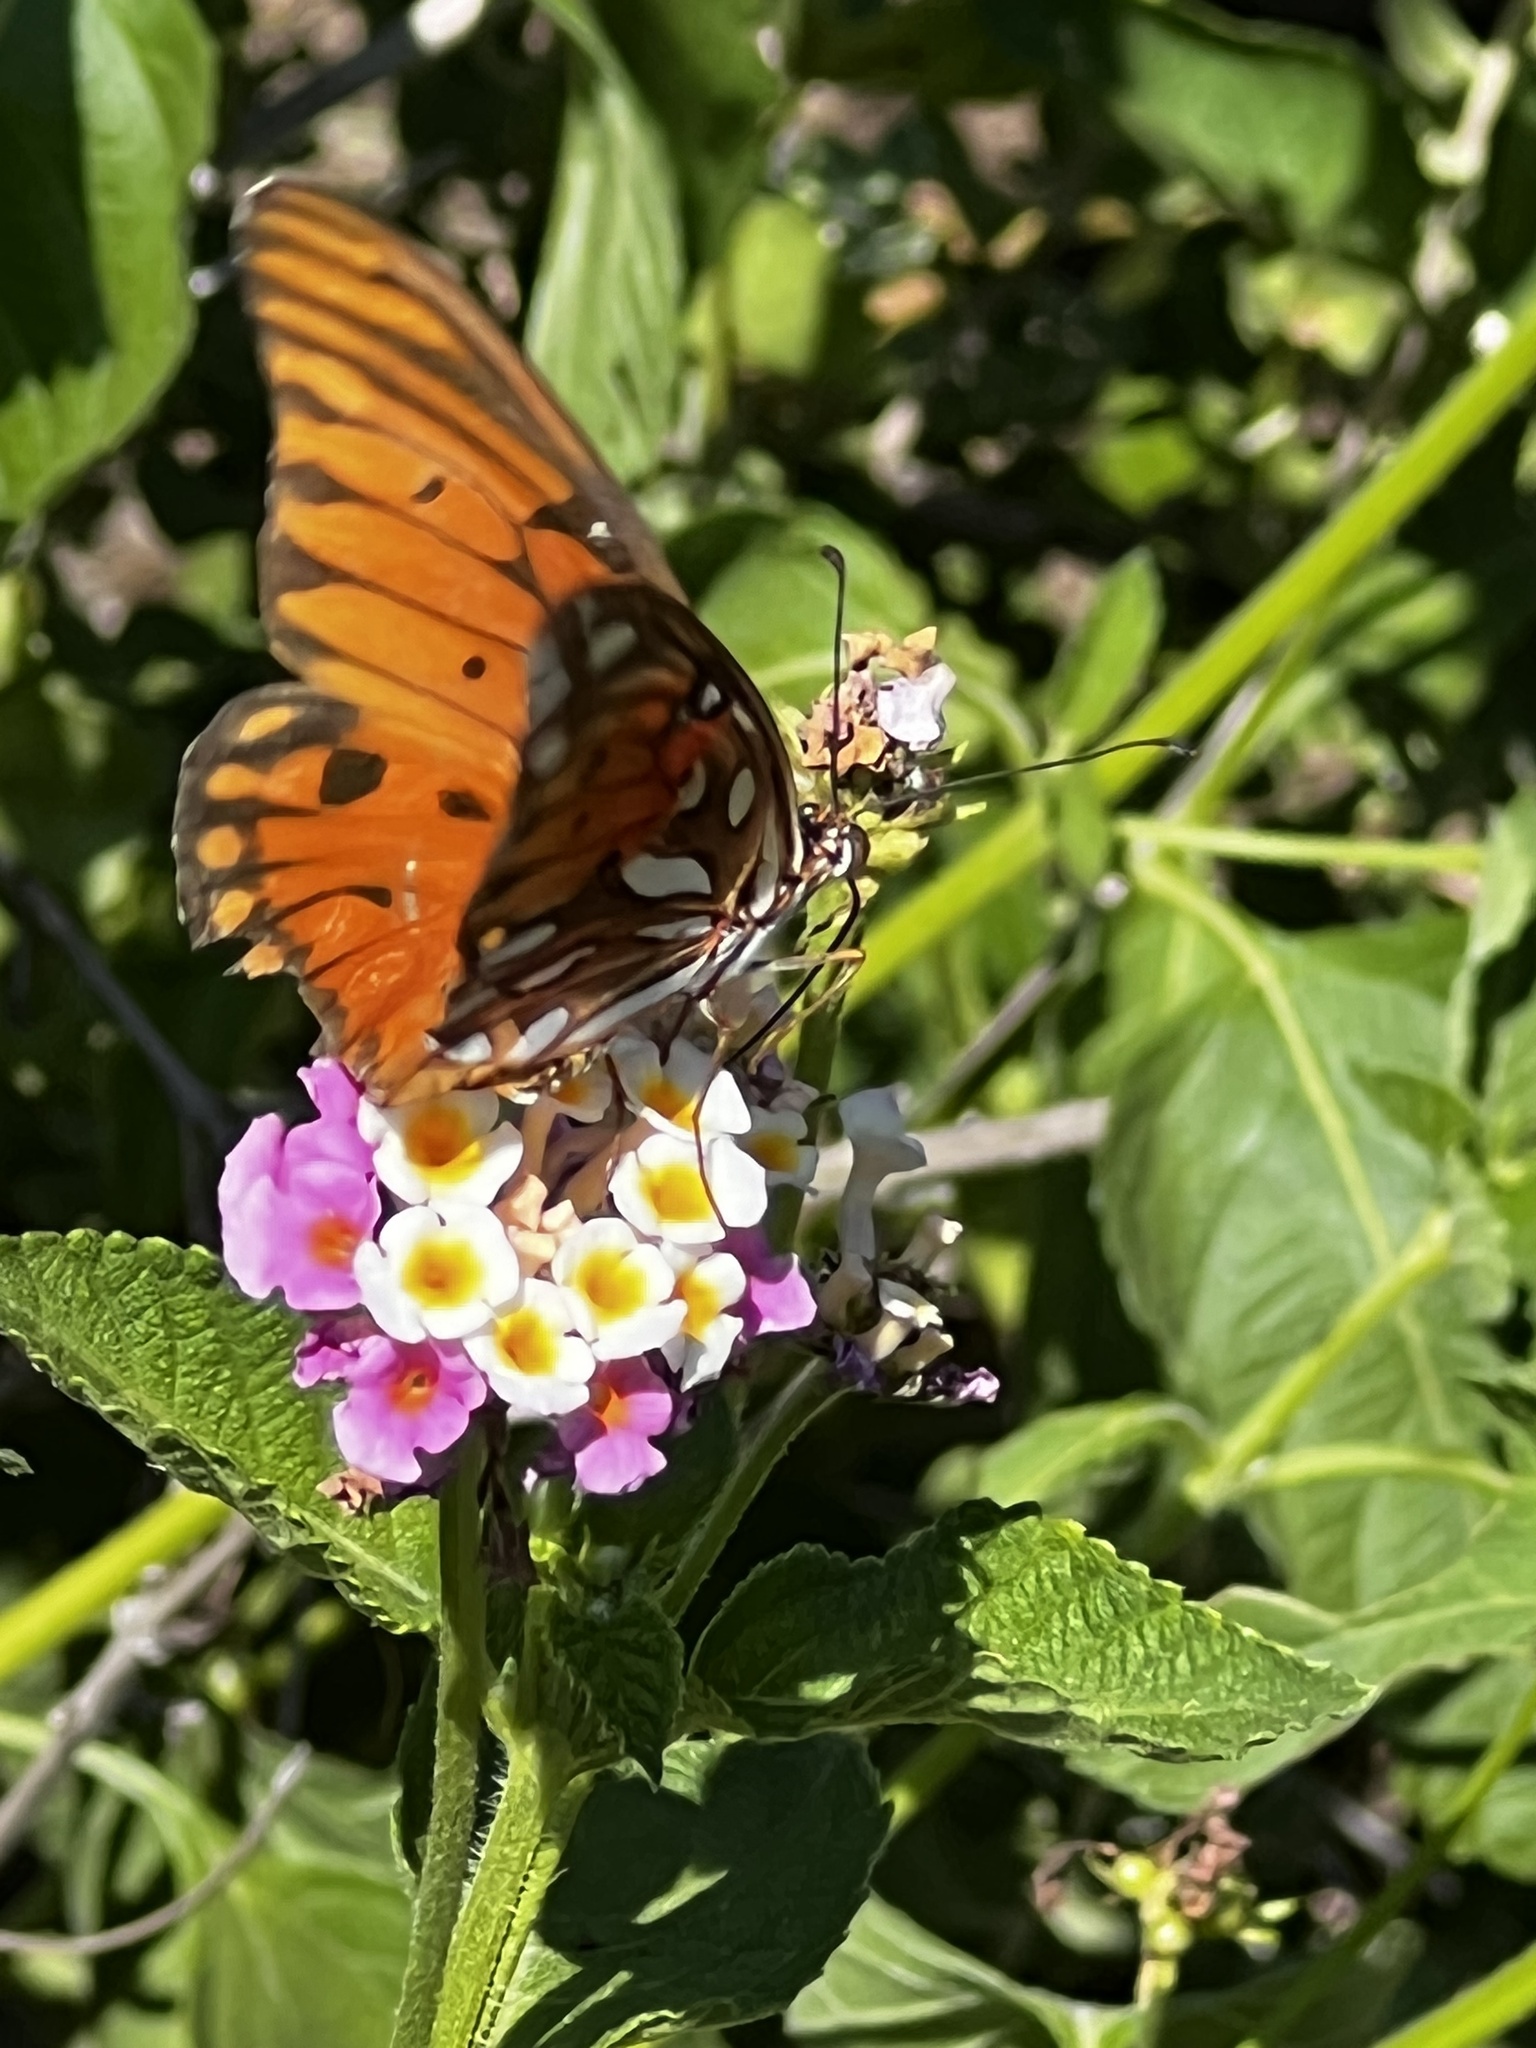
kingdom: Animalia
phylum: Arthropoda
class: Insecta
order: Lepidoptera
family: Nymphalidae
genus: Dione
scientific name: Dione vanillae
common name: Gulf fritillary
